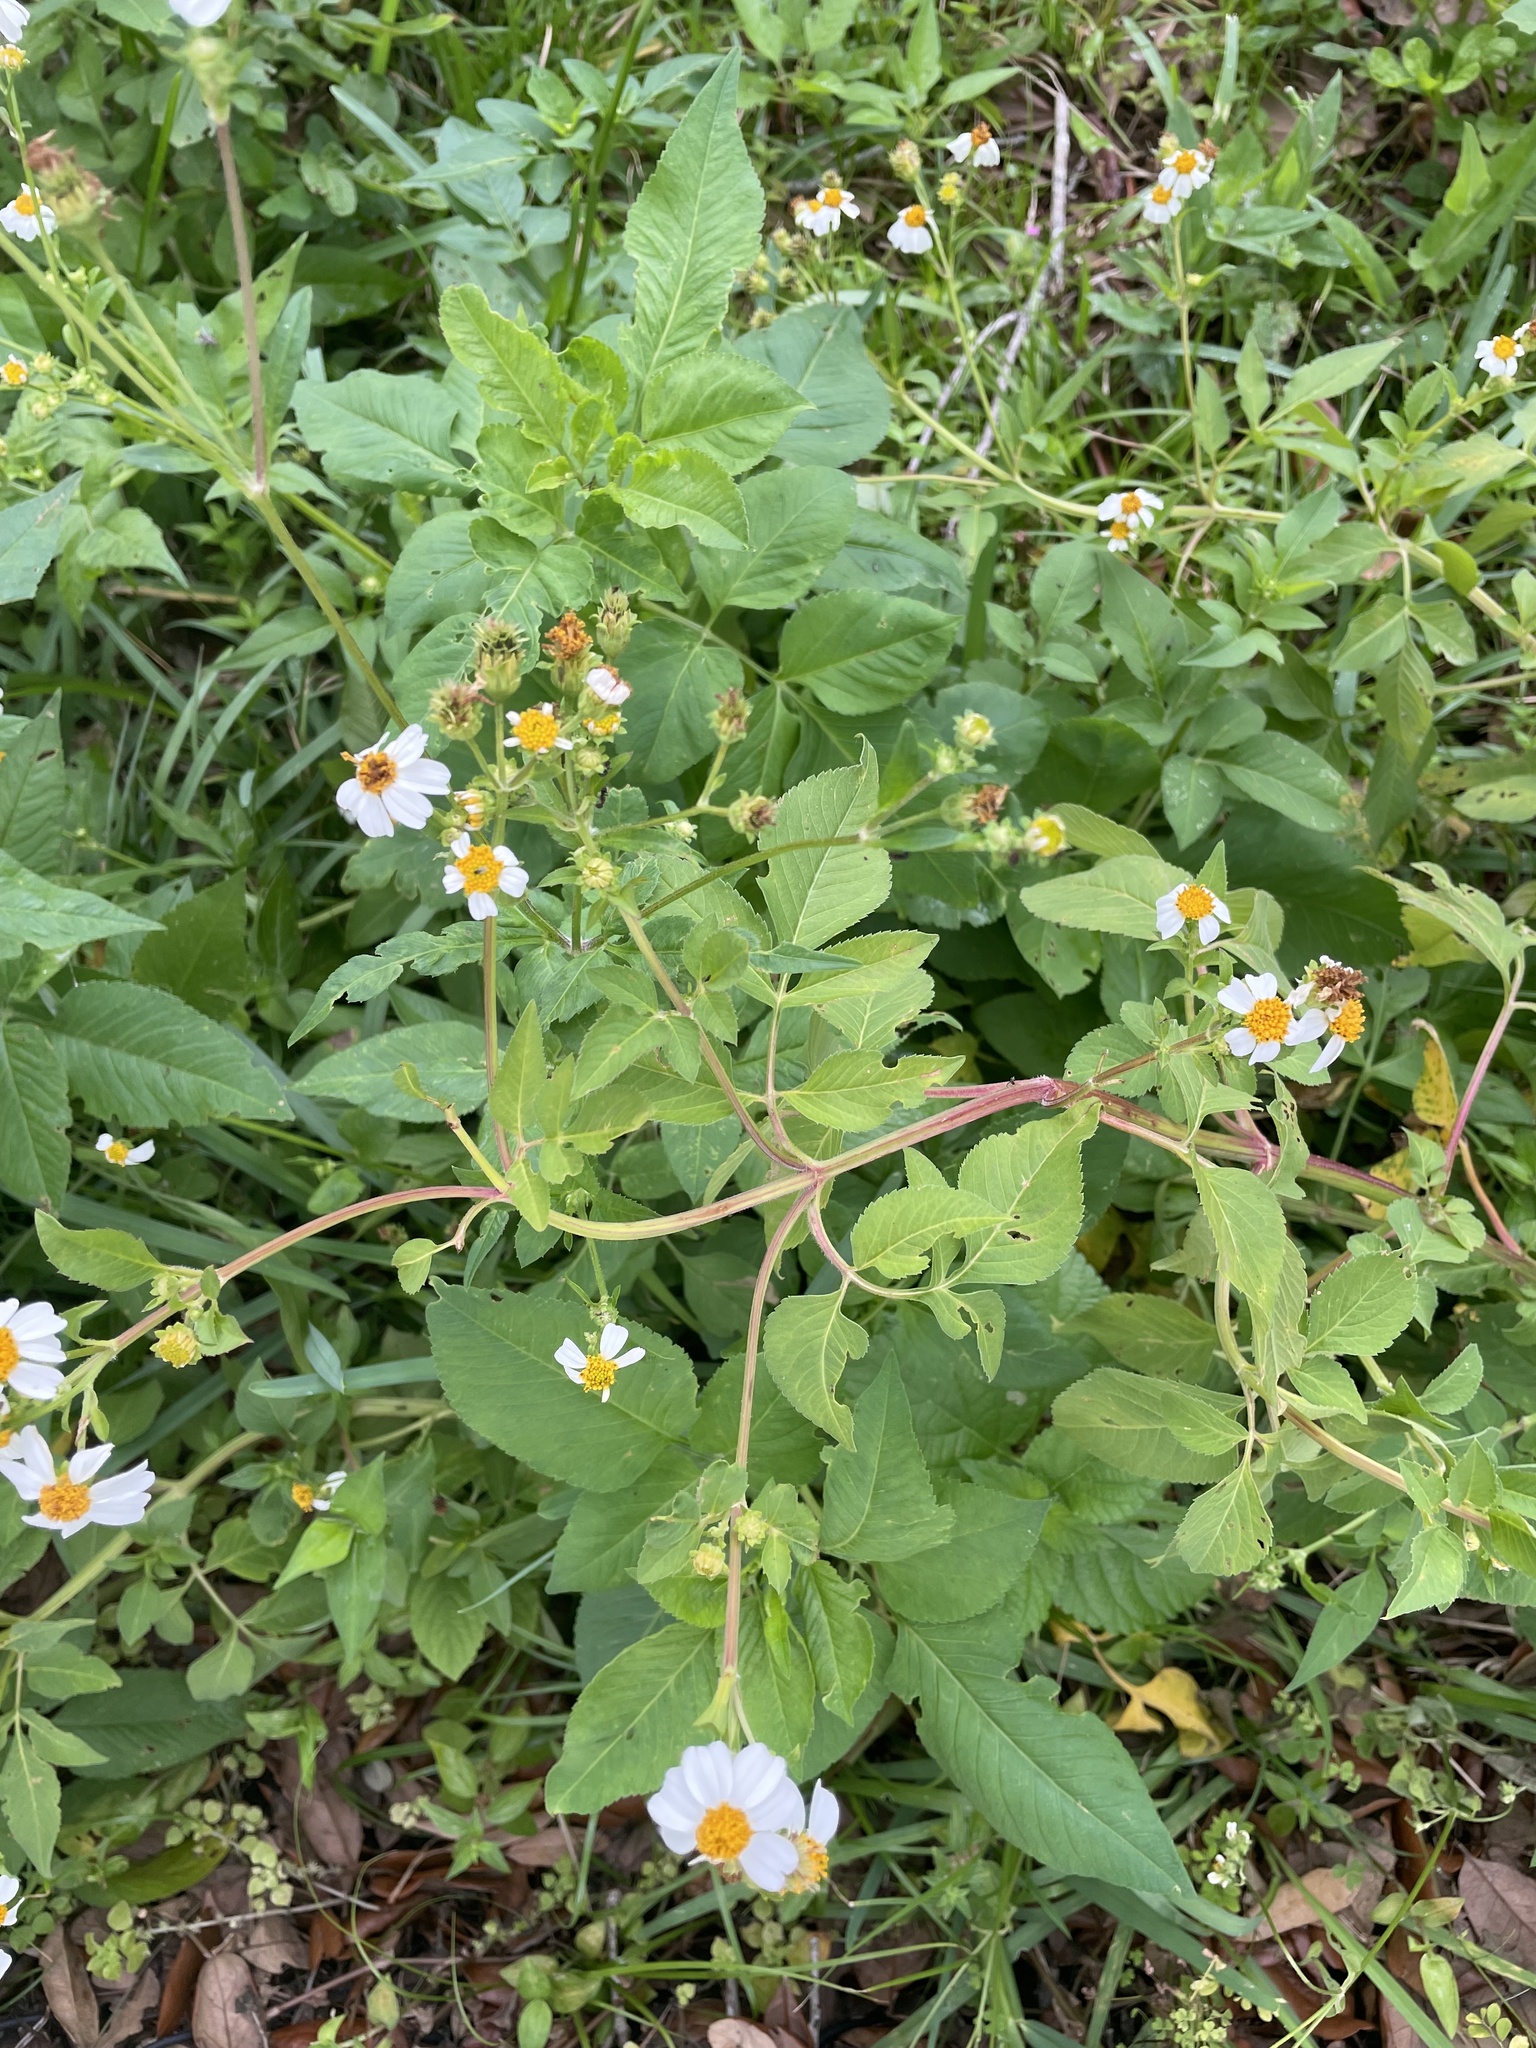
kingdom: Plantae
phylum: Tracheophyta
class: Magnoliopsida
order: Asterales
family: Asteraceae
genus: Bidens
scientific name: Bidens alba
